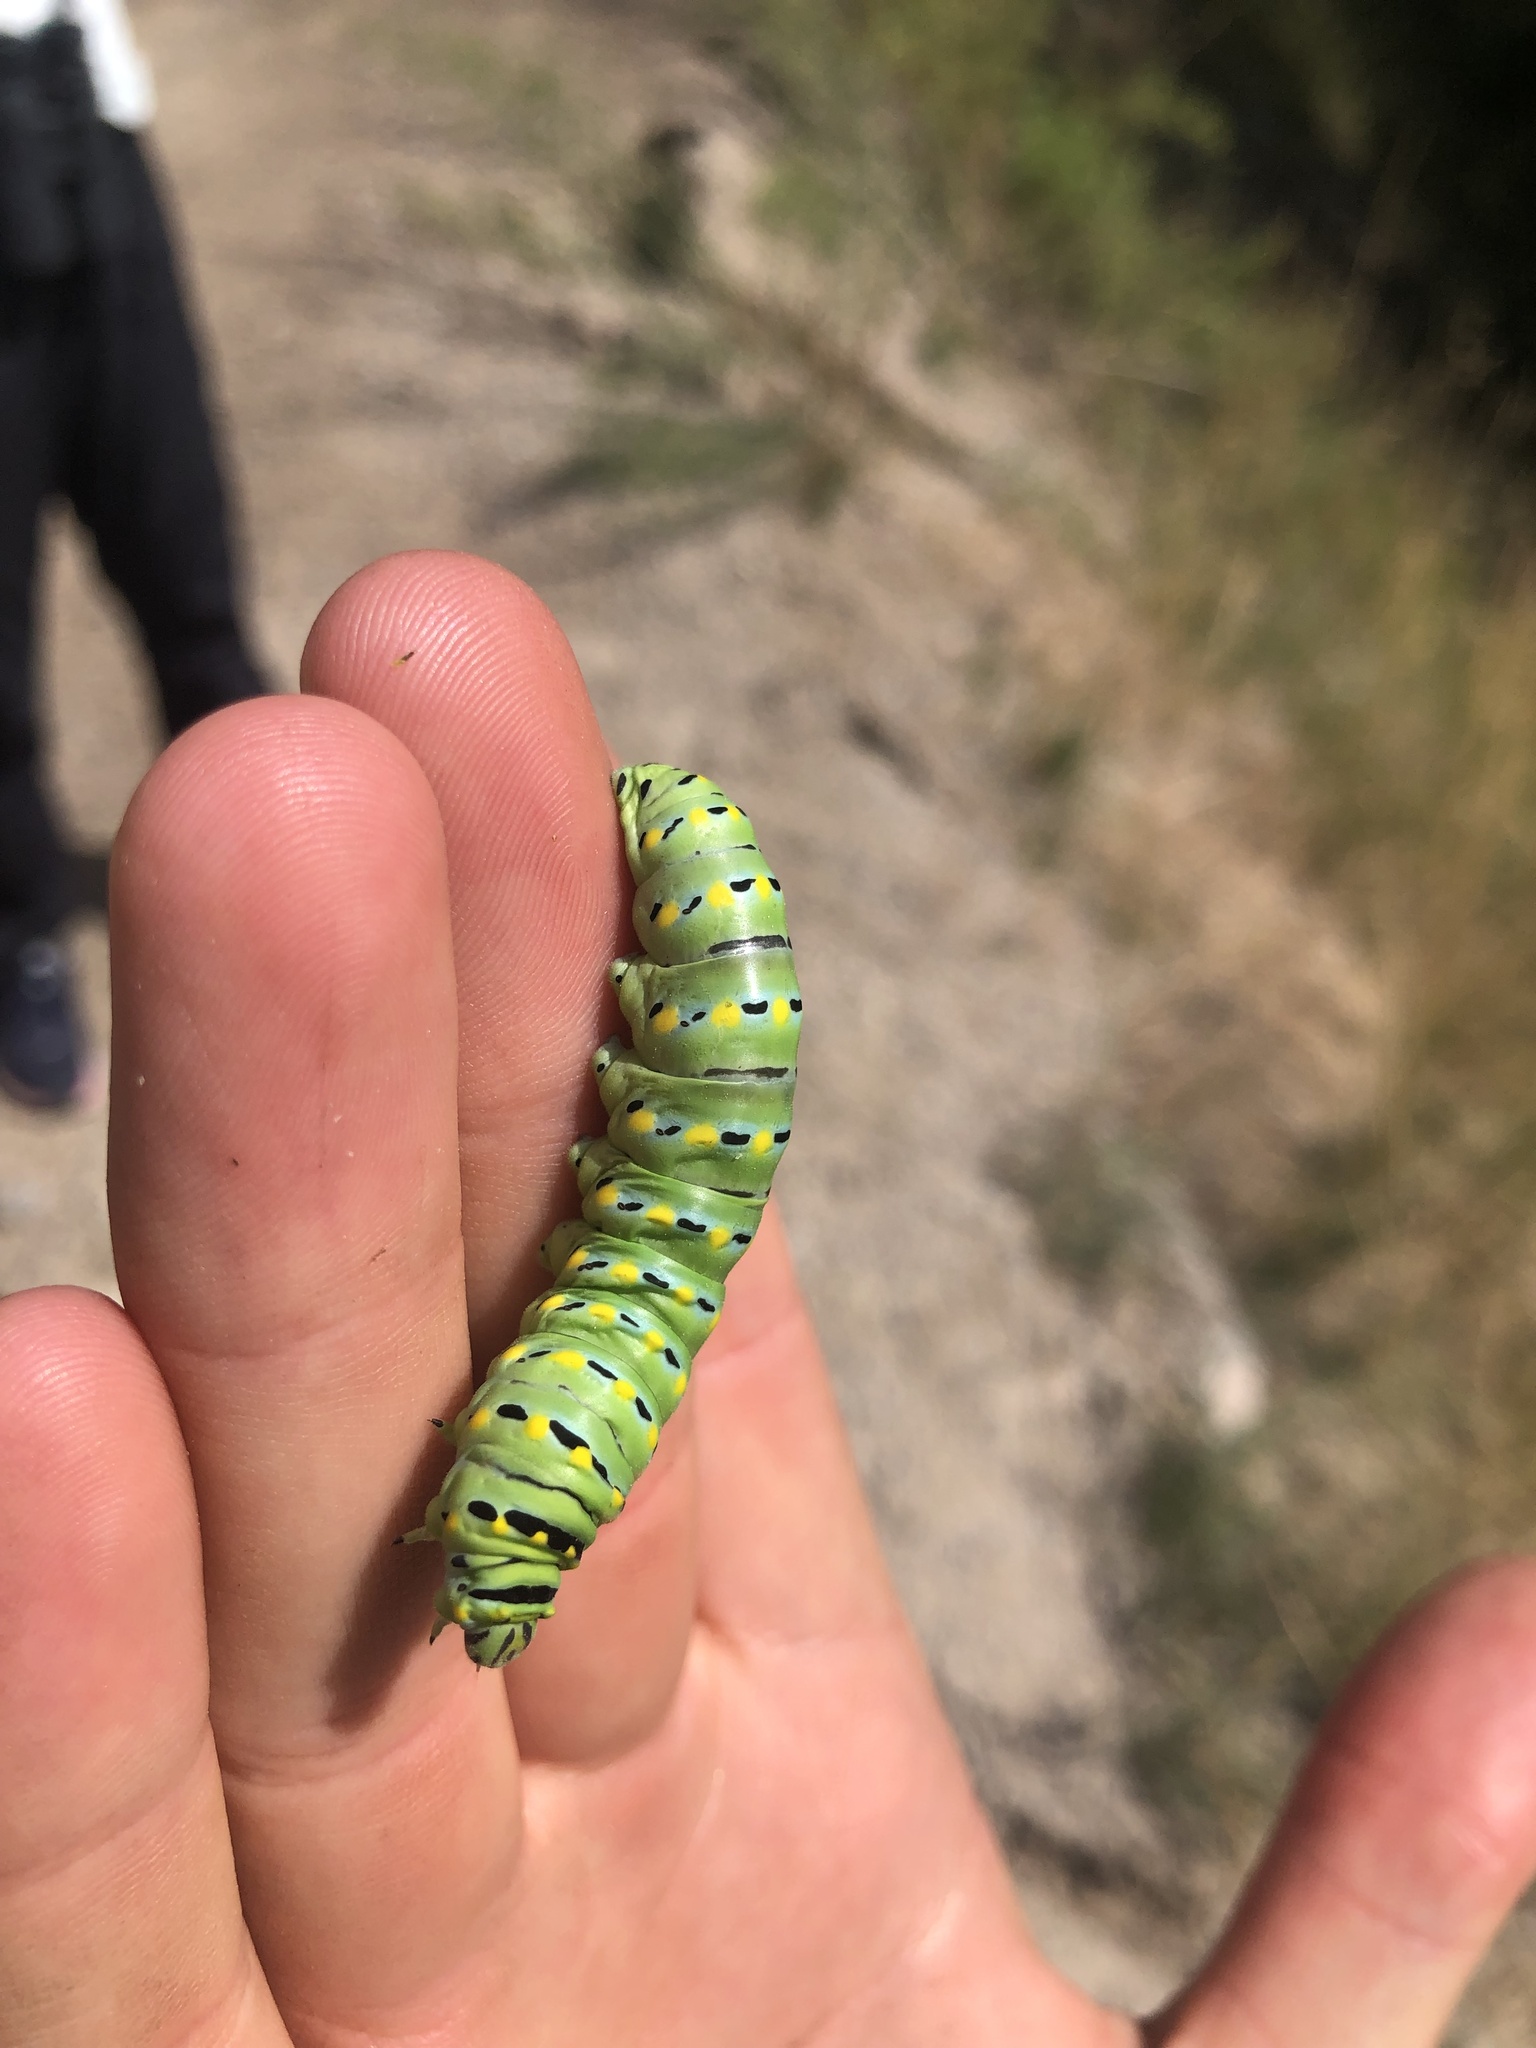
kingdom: Animalia
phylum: Arthropoda
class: Insecta
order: Lepidoptera
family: Papilionidae
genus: Papilio
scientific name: Papilio
